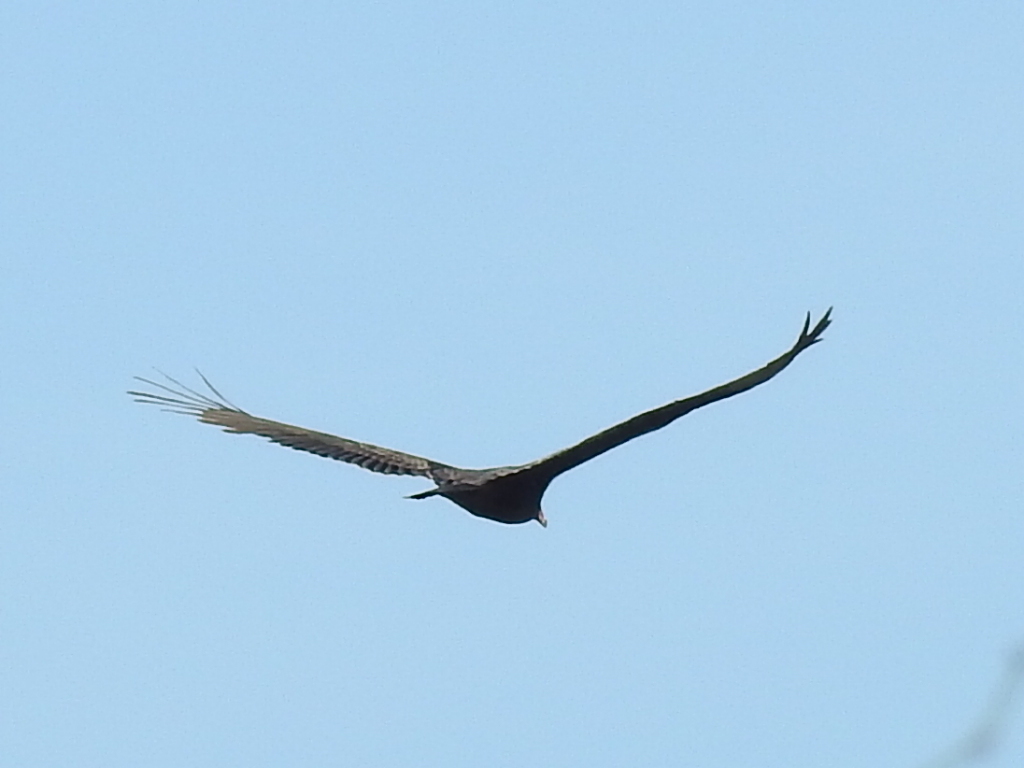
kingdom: Animalia
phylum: Chordata
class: Aves
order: Accipitriformes
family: Cathartidae
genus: Cathartes
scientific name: Cathartes aura
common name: Turkey vulture
